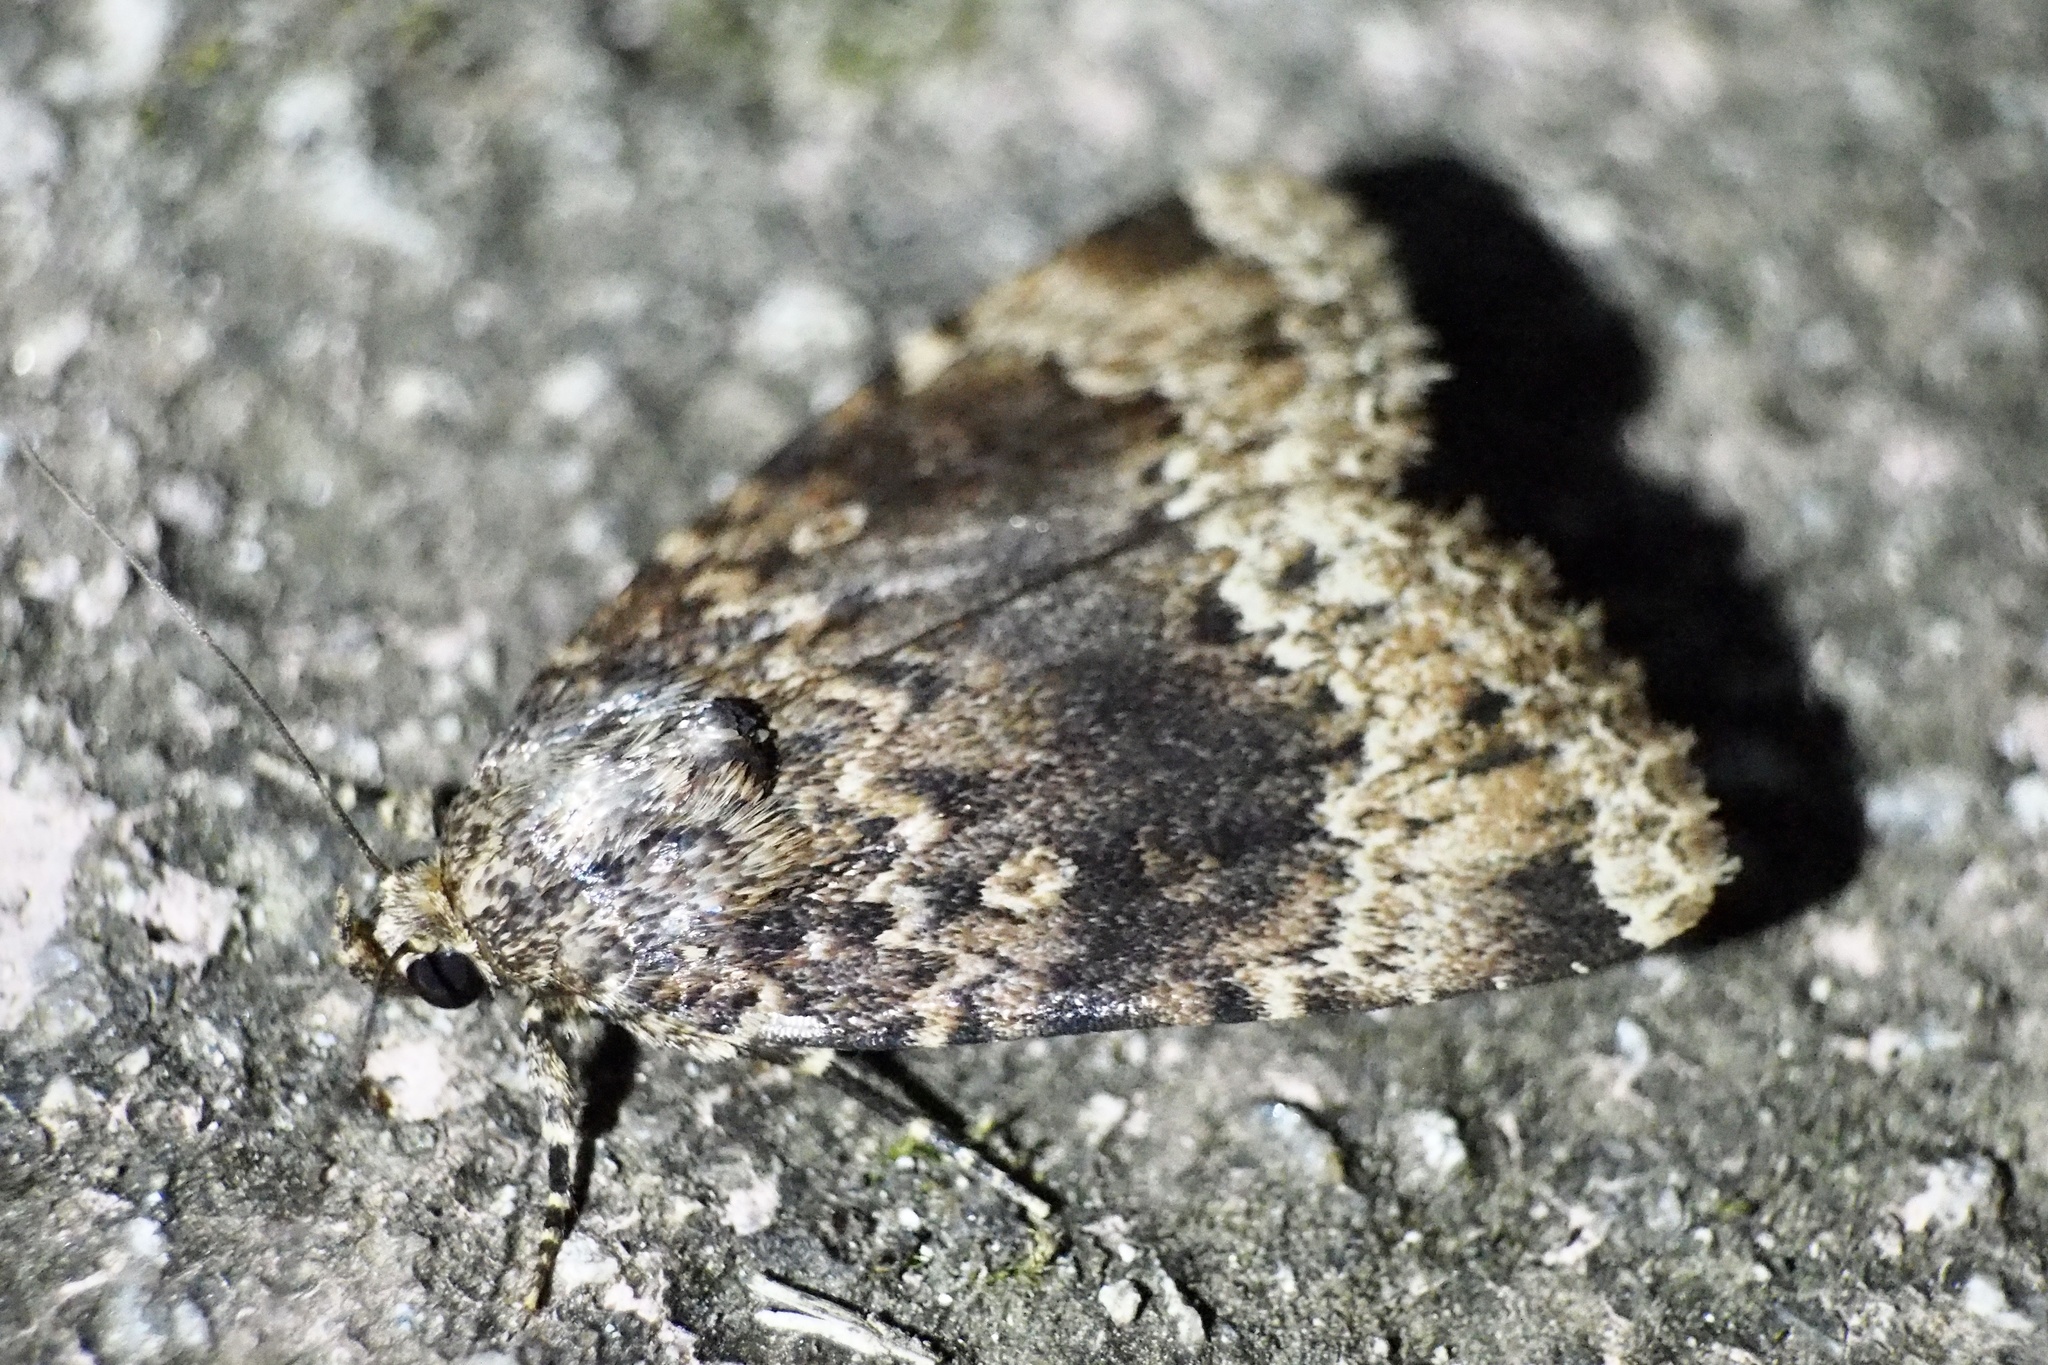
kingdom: Animalia
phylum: Arthropoda
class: Insecta
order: Lepidoptera
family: Noctuidae
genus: Amphipyra
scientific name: Amphipyra erebina
